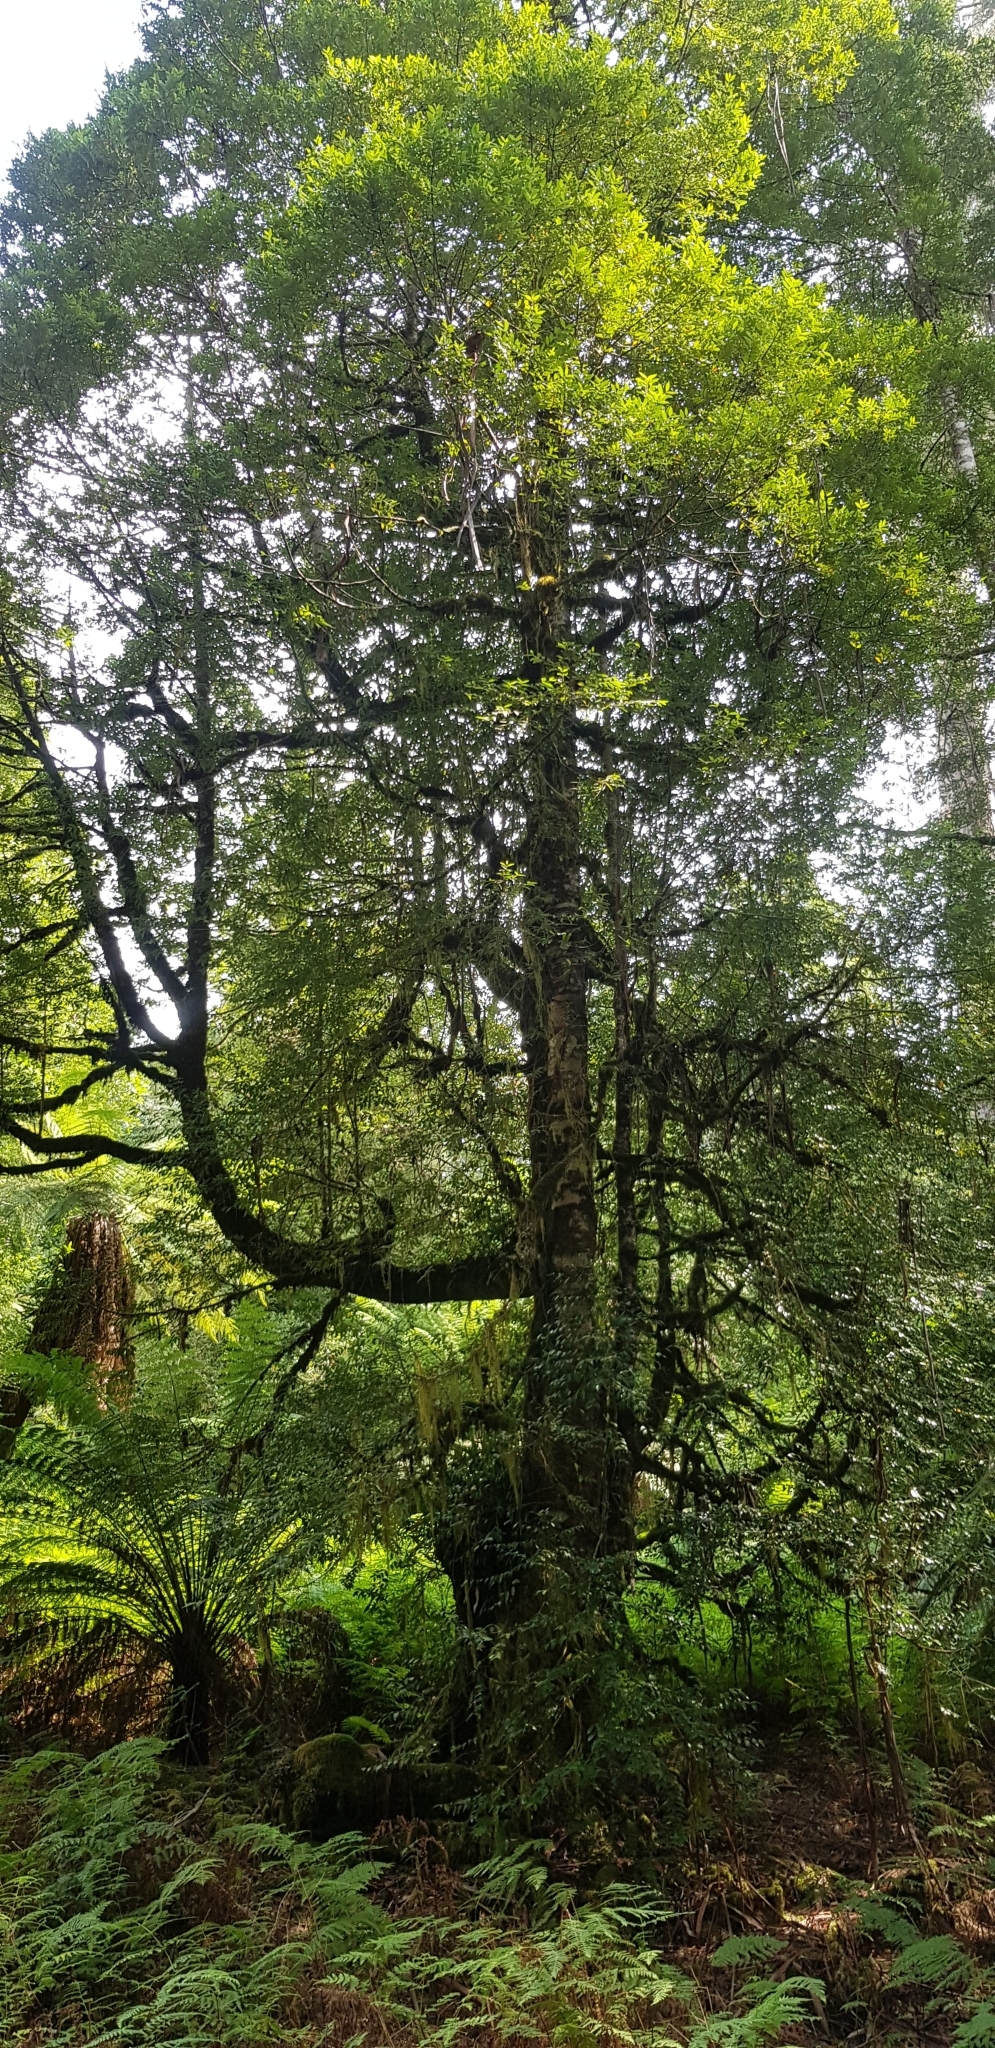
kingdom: Plantae
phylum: Tracheophyta
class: Magnoliopsida
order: Laurales
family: Atherospermataceae
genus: Atherosperma
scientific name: Atherosperma moschatum
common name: Tasmanian-sassafras
